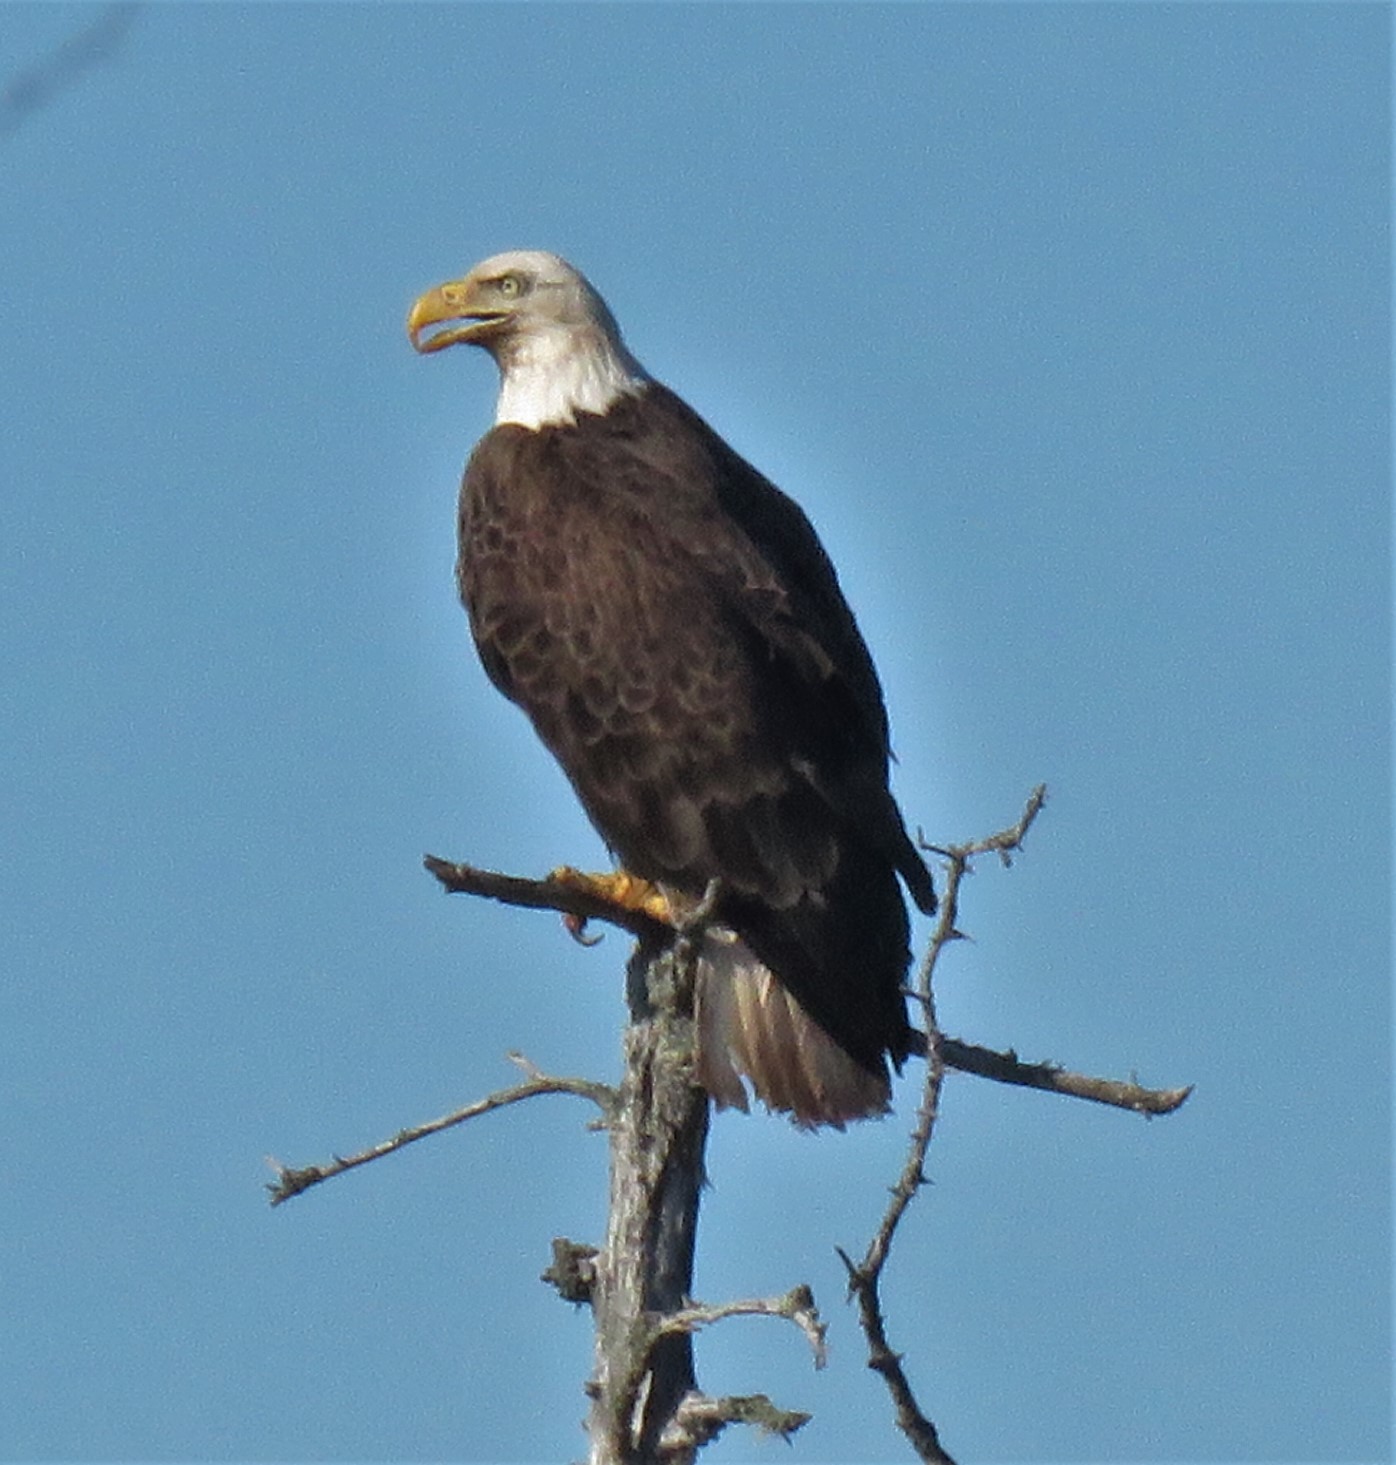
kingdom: Animalia
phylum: Chordata
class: Aves
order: Accipitriformes
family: Accipitridae
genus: Haliaeetus
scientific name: Haliaeetus leucocephalus
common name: Bald eagle
